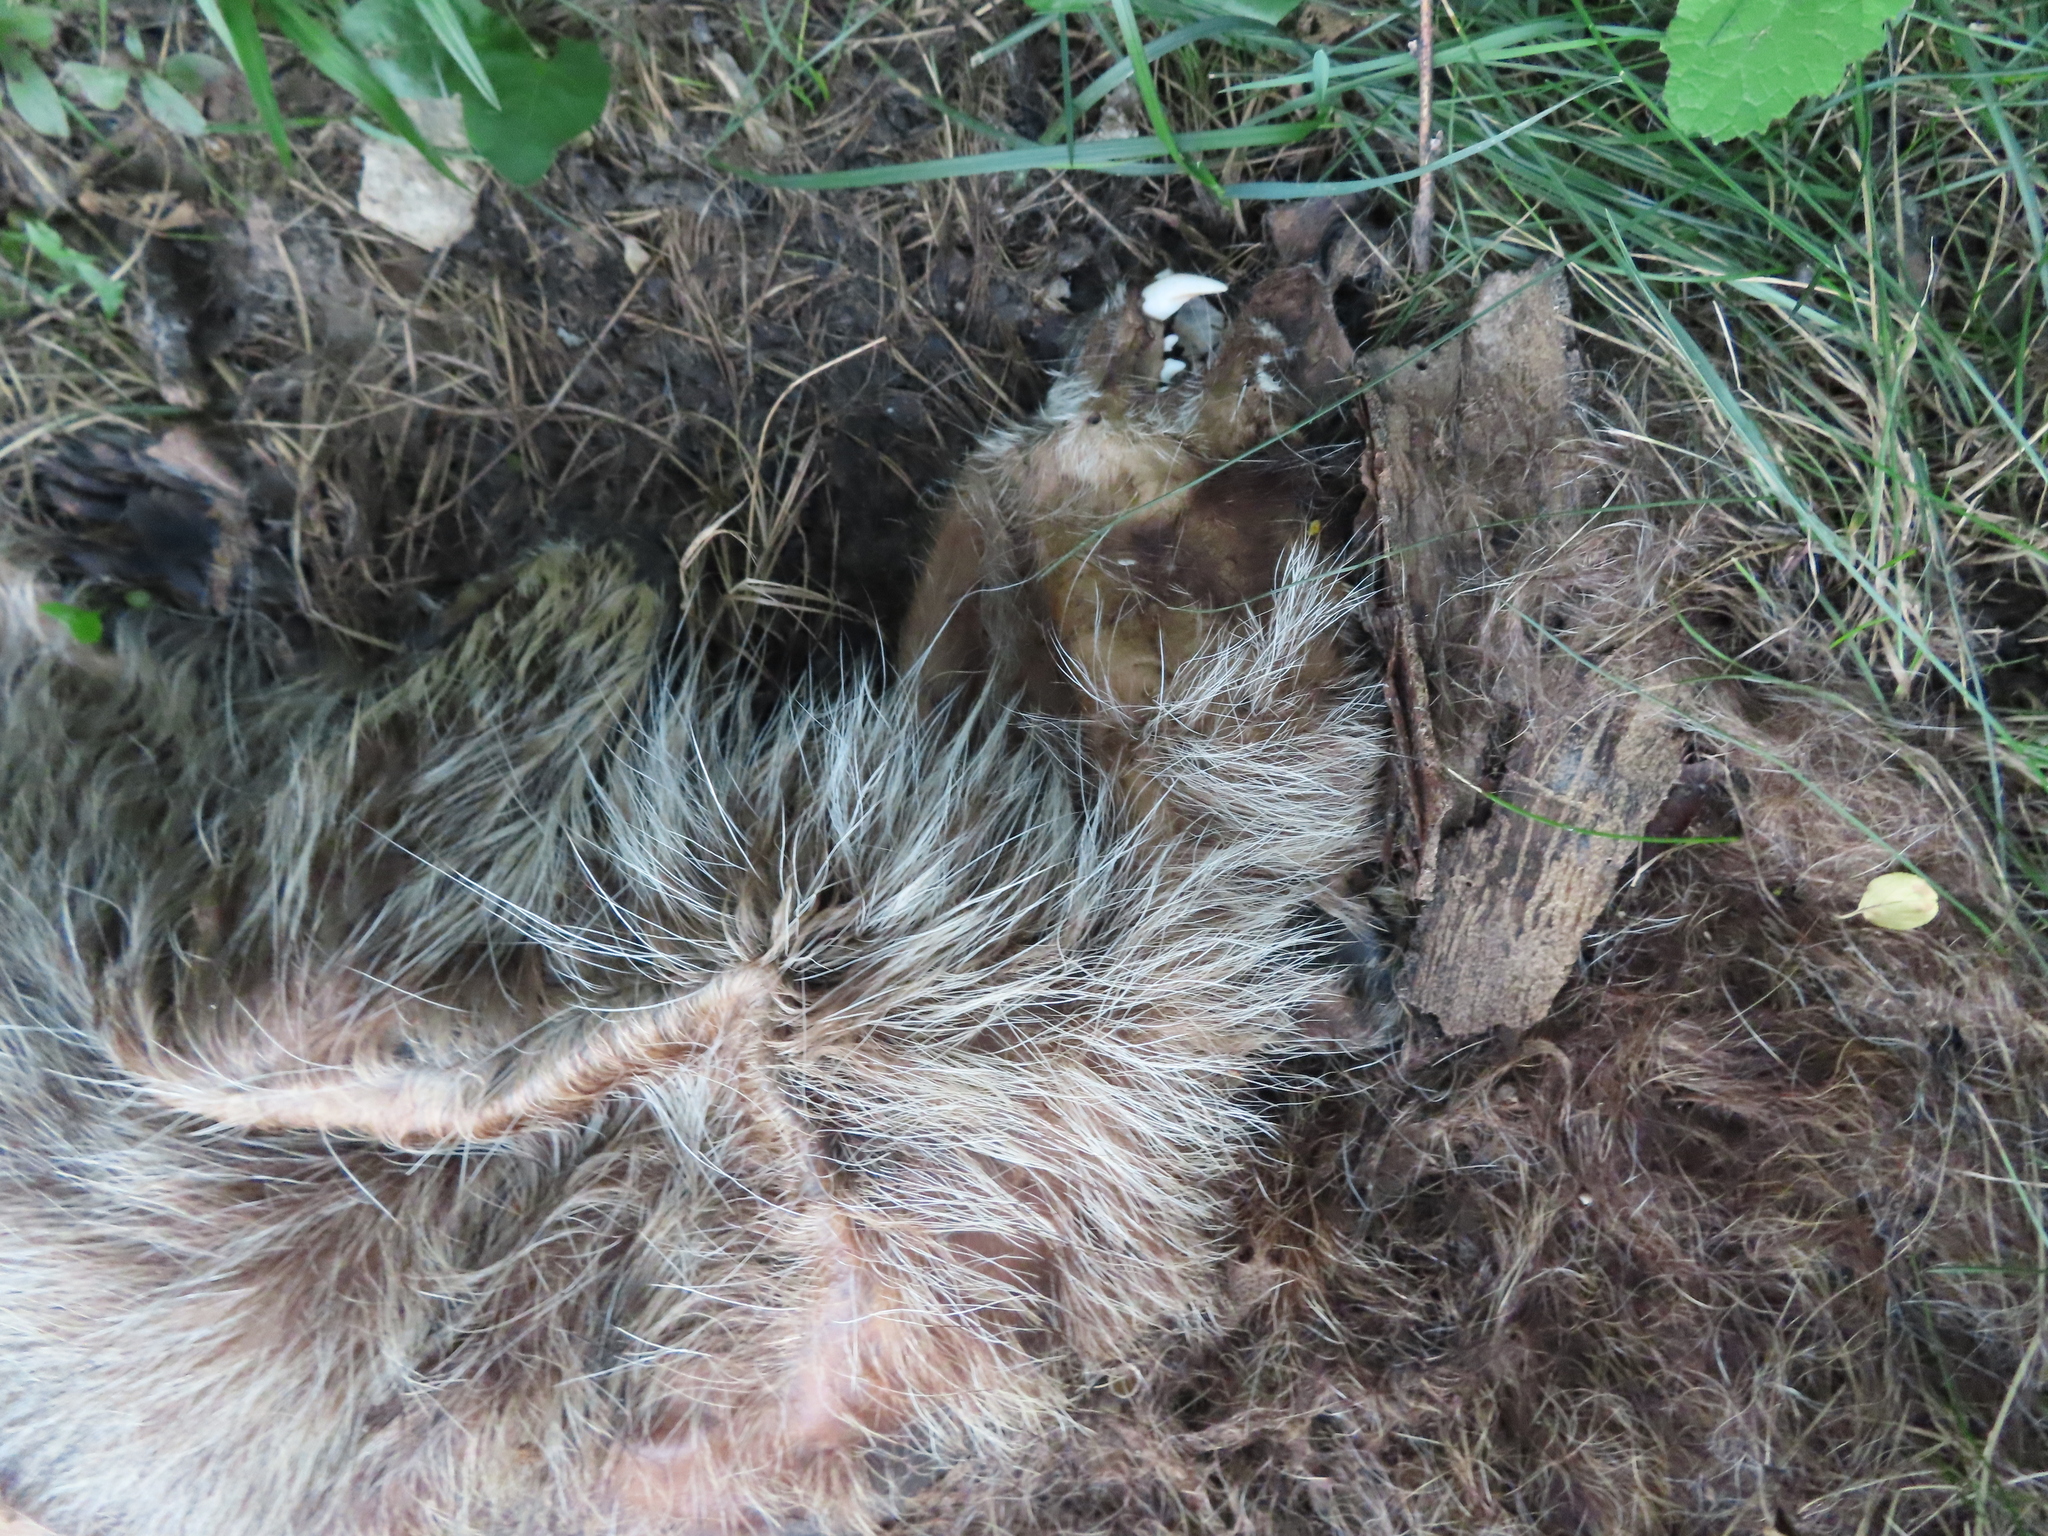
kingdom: Animalia
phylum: Chordata
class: Mammalia
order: Carnivora
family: Procyonidae
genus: Procyon
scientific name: Procyon lotor
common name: Raccoon
